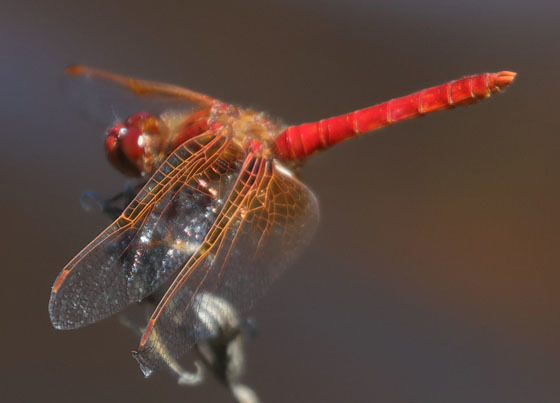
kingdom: Animalia
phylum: Arthropoda
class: Insecta
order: Odonata
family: Libellulidae
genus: Sympetrum
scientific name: Sympetrum illotum
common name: Cardinal meadowhawk
